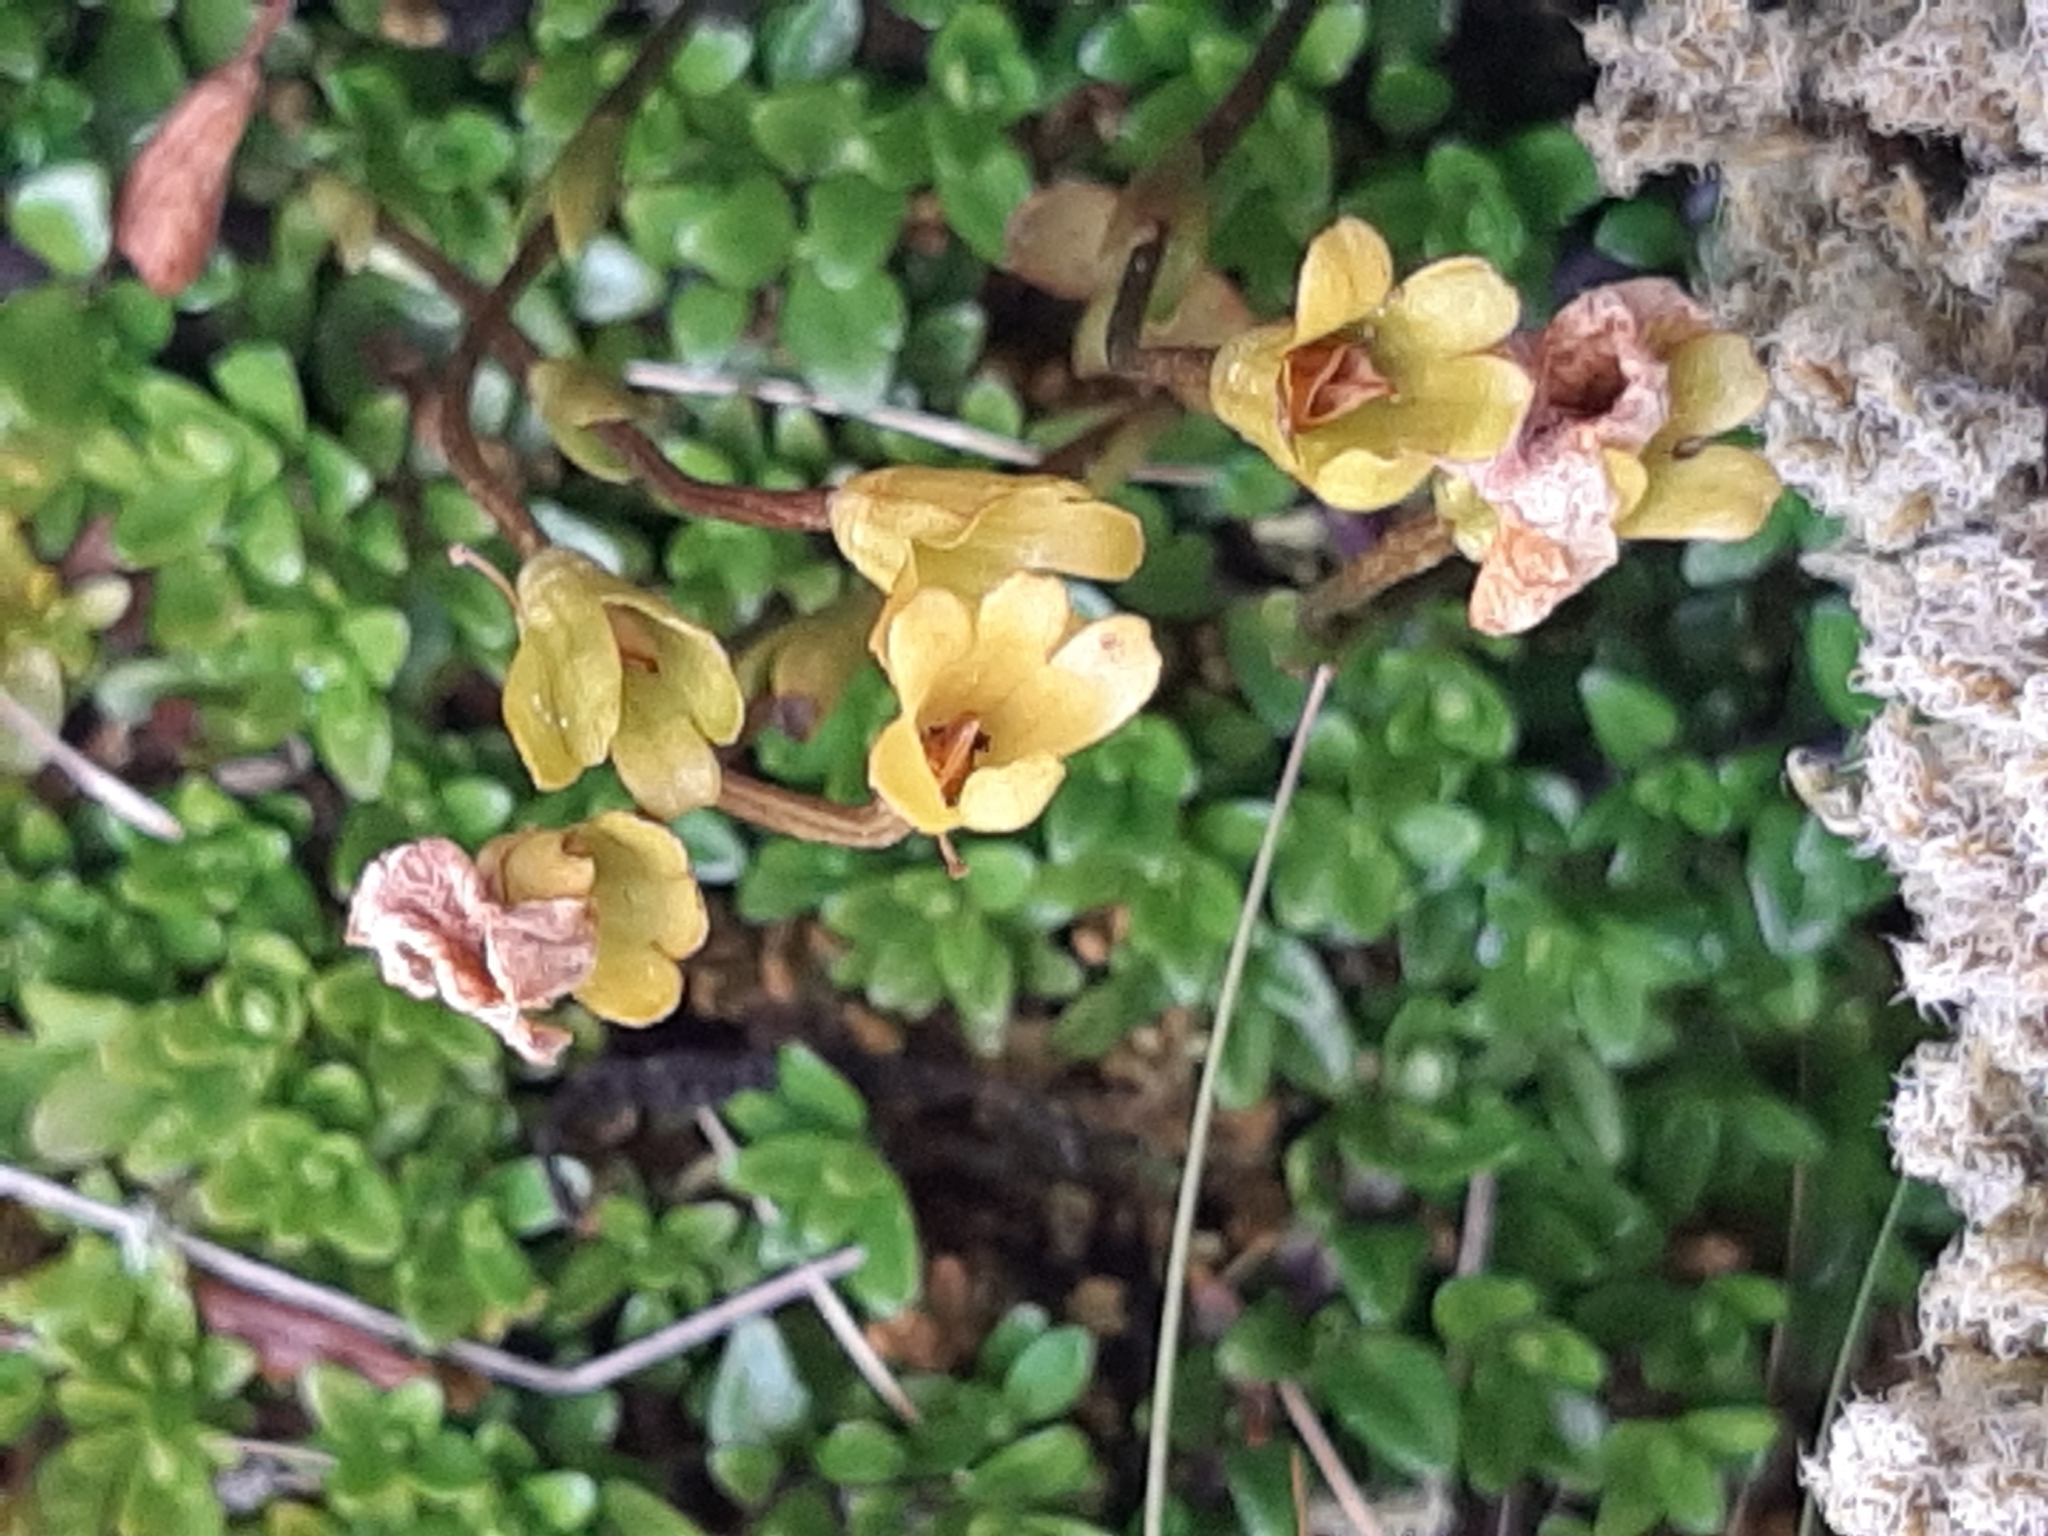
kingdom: Plantae
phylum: Tracheophyta
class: Magnoliopsida
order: Lamiales
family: Plantaginaceae
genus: Ourisia
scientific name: Ourisia caespitosa
